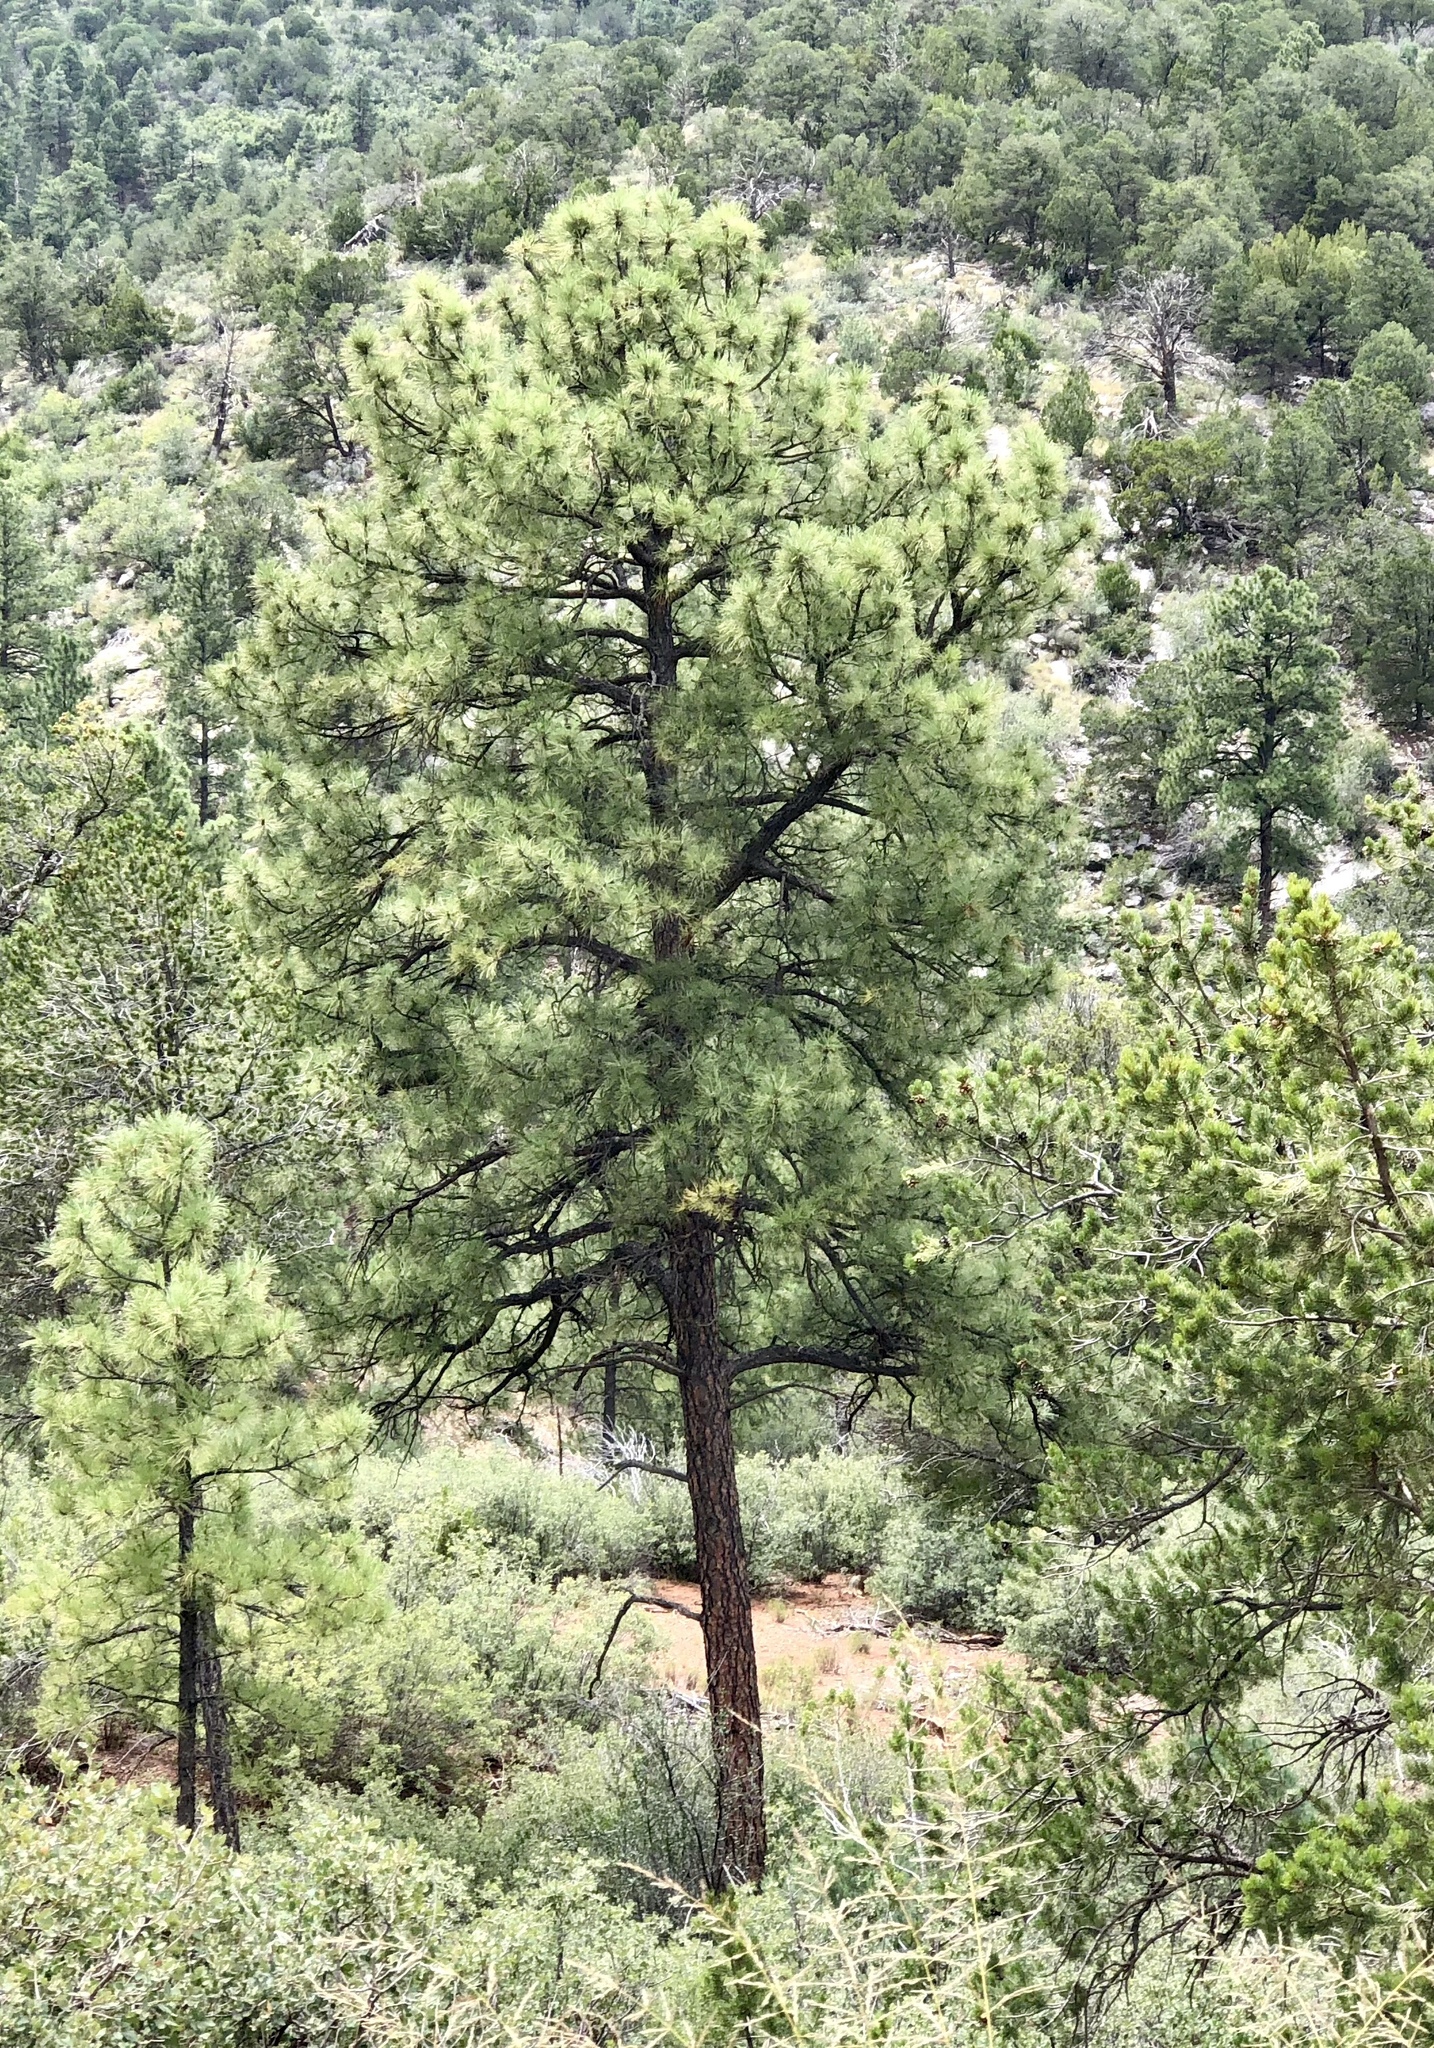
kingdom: Plantae
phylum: Tracheophyta
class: Pinopsida
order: Pinales
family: Pinaceae
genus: Pinus
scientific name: Pinus ponderosa
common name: Western yellow-pine
